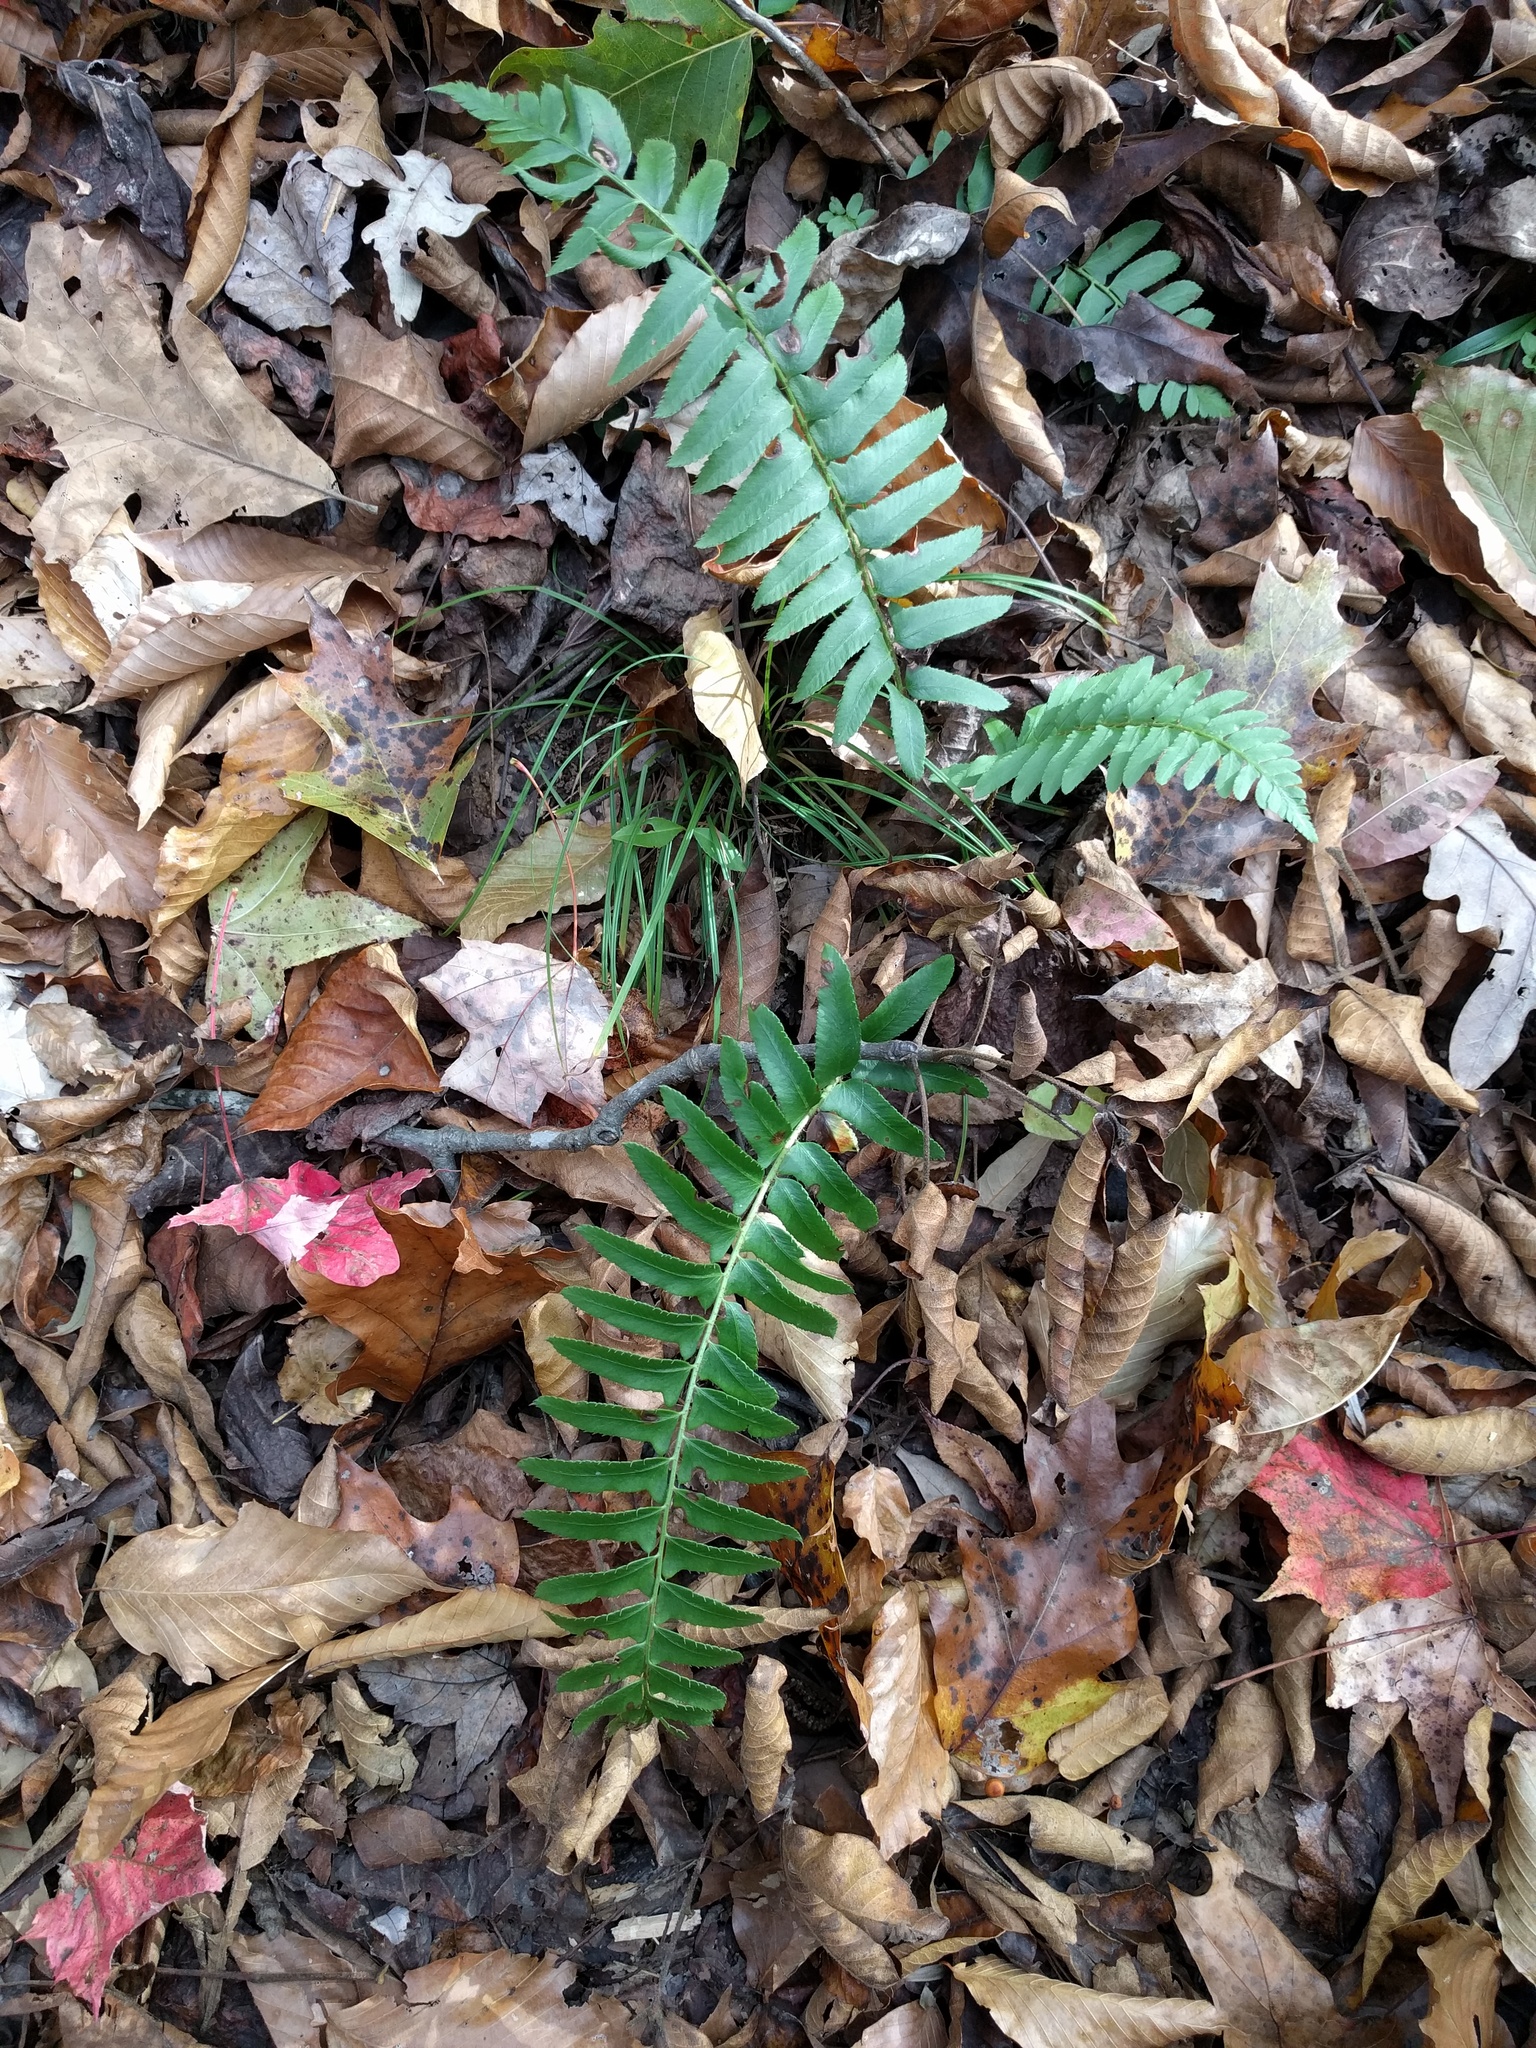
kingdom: Plantae
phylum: Tracheophyta
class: Polypodiopsida
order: Polypodiales
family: Dryopteridaceae
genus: Polystichum
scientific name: Polystichum acrostichoides
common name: Christmas fern
